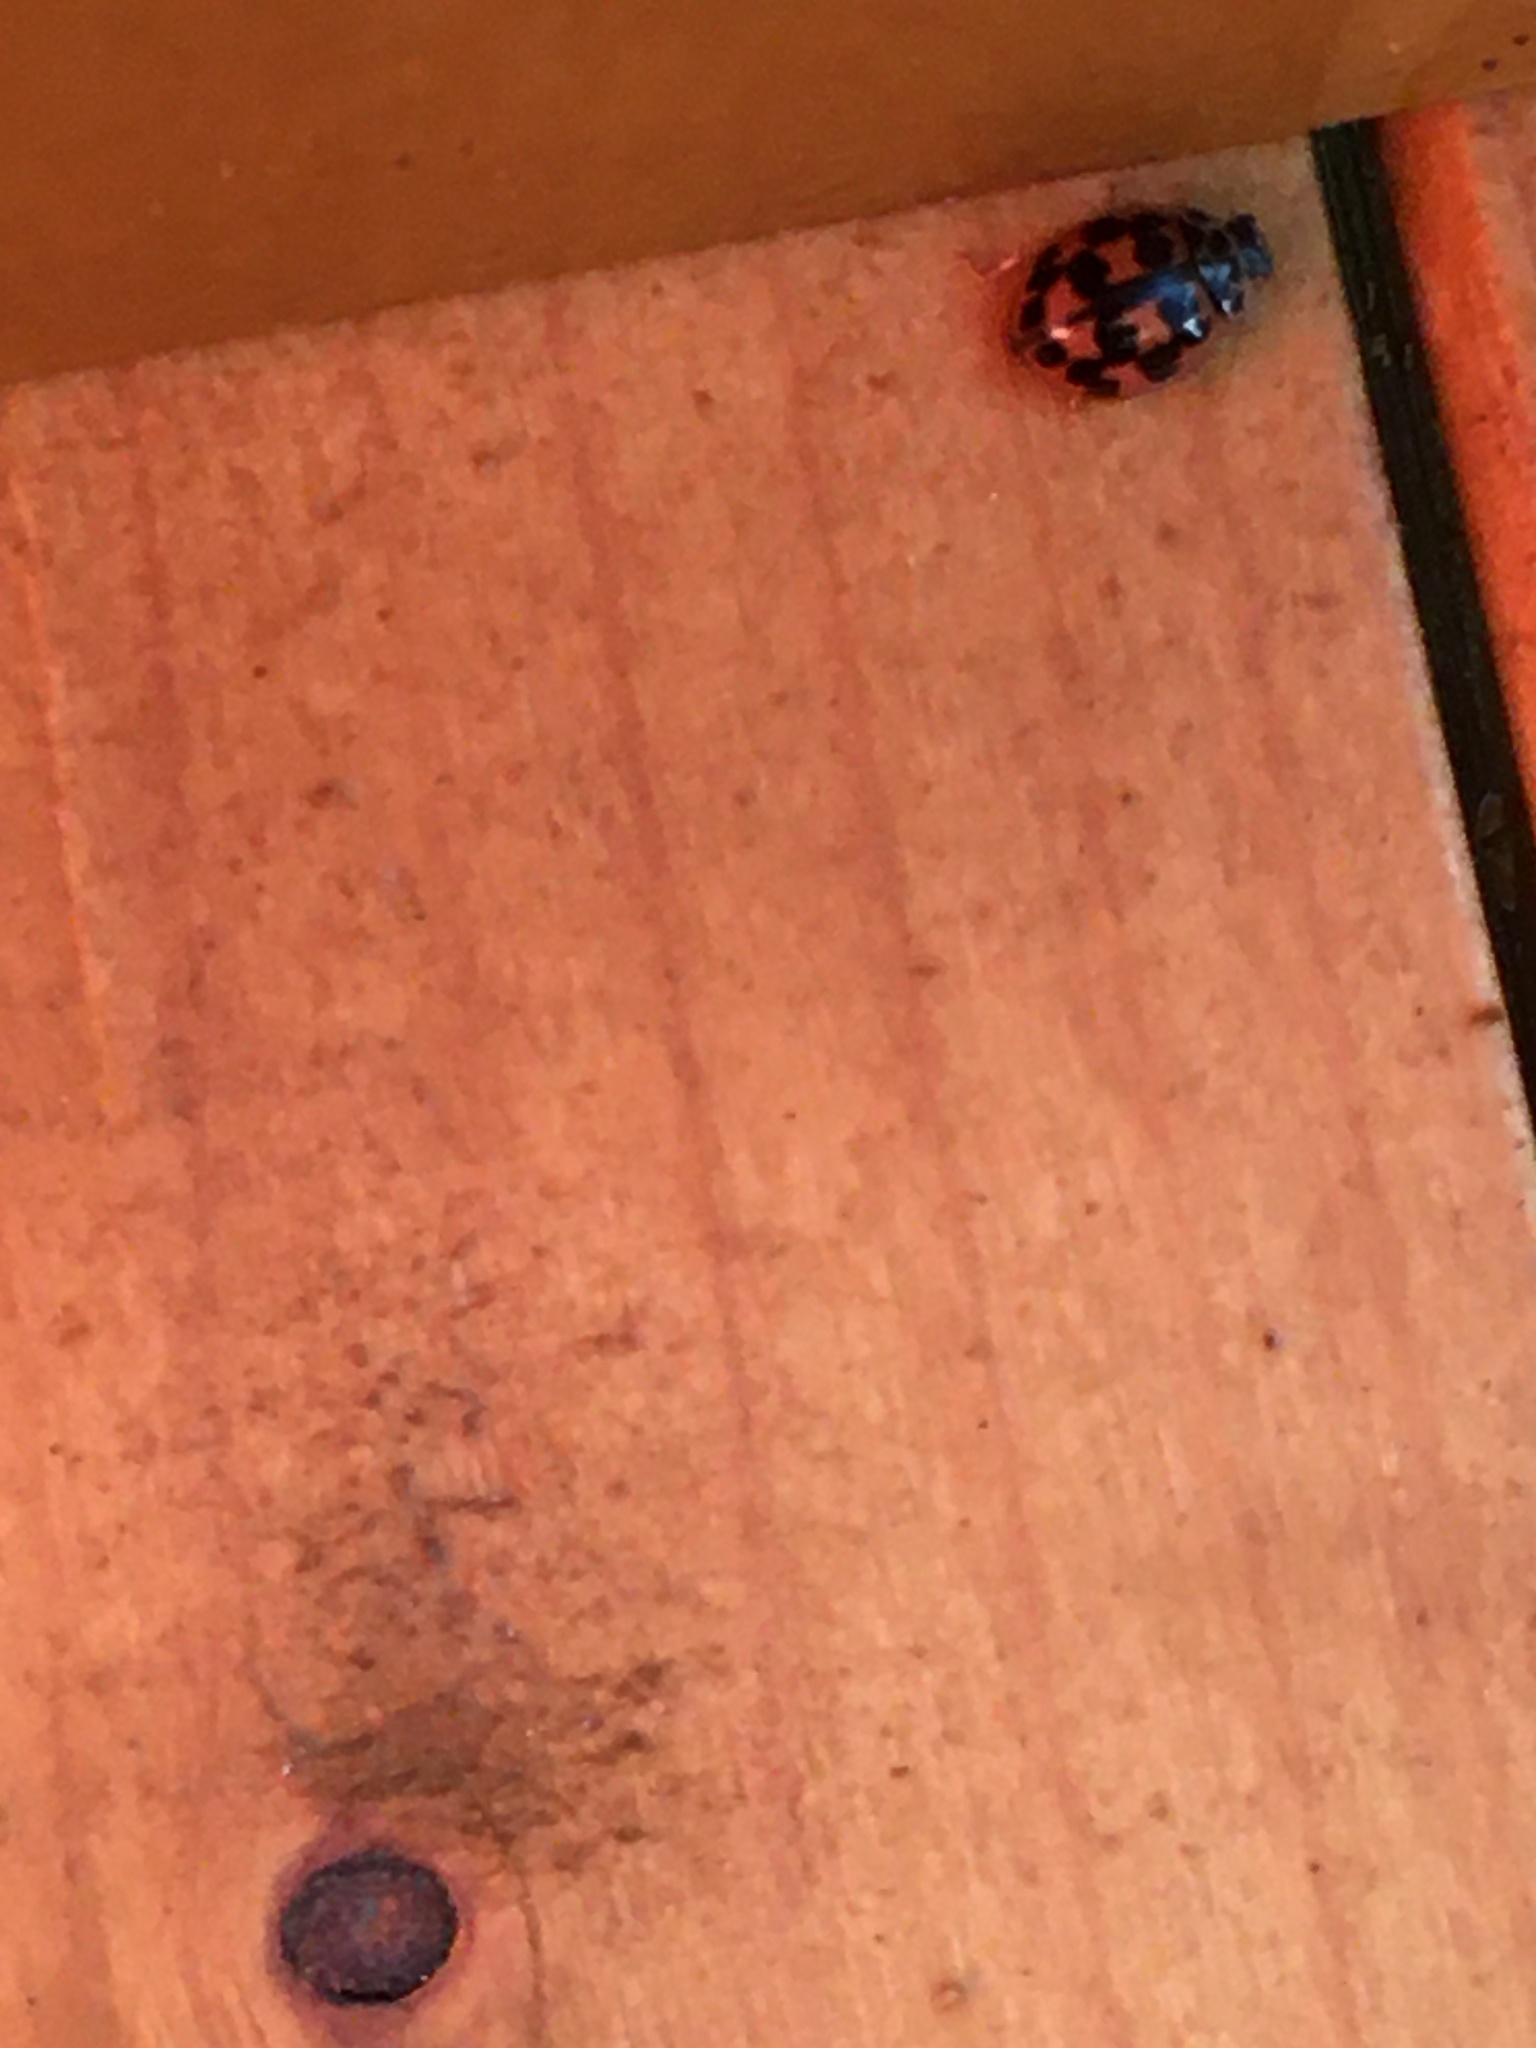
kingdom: Animalia
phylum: Arthropoda
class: Insecta
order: Coleoptera
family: Coccinellidae
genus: Oenopia
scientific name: Oenopia conglobata
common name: Ladybird beetle
